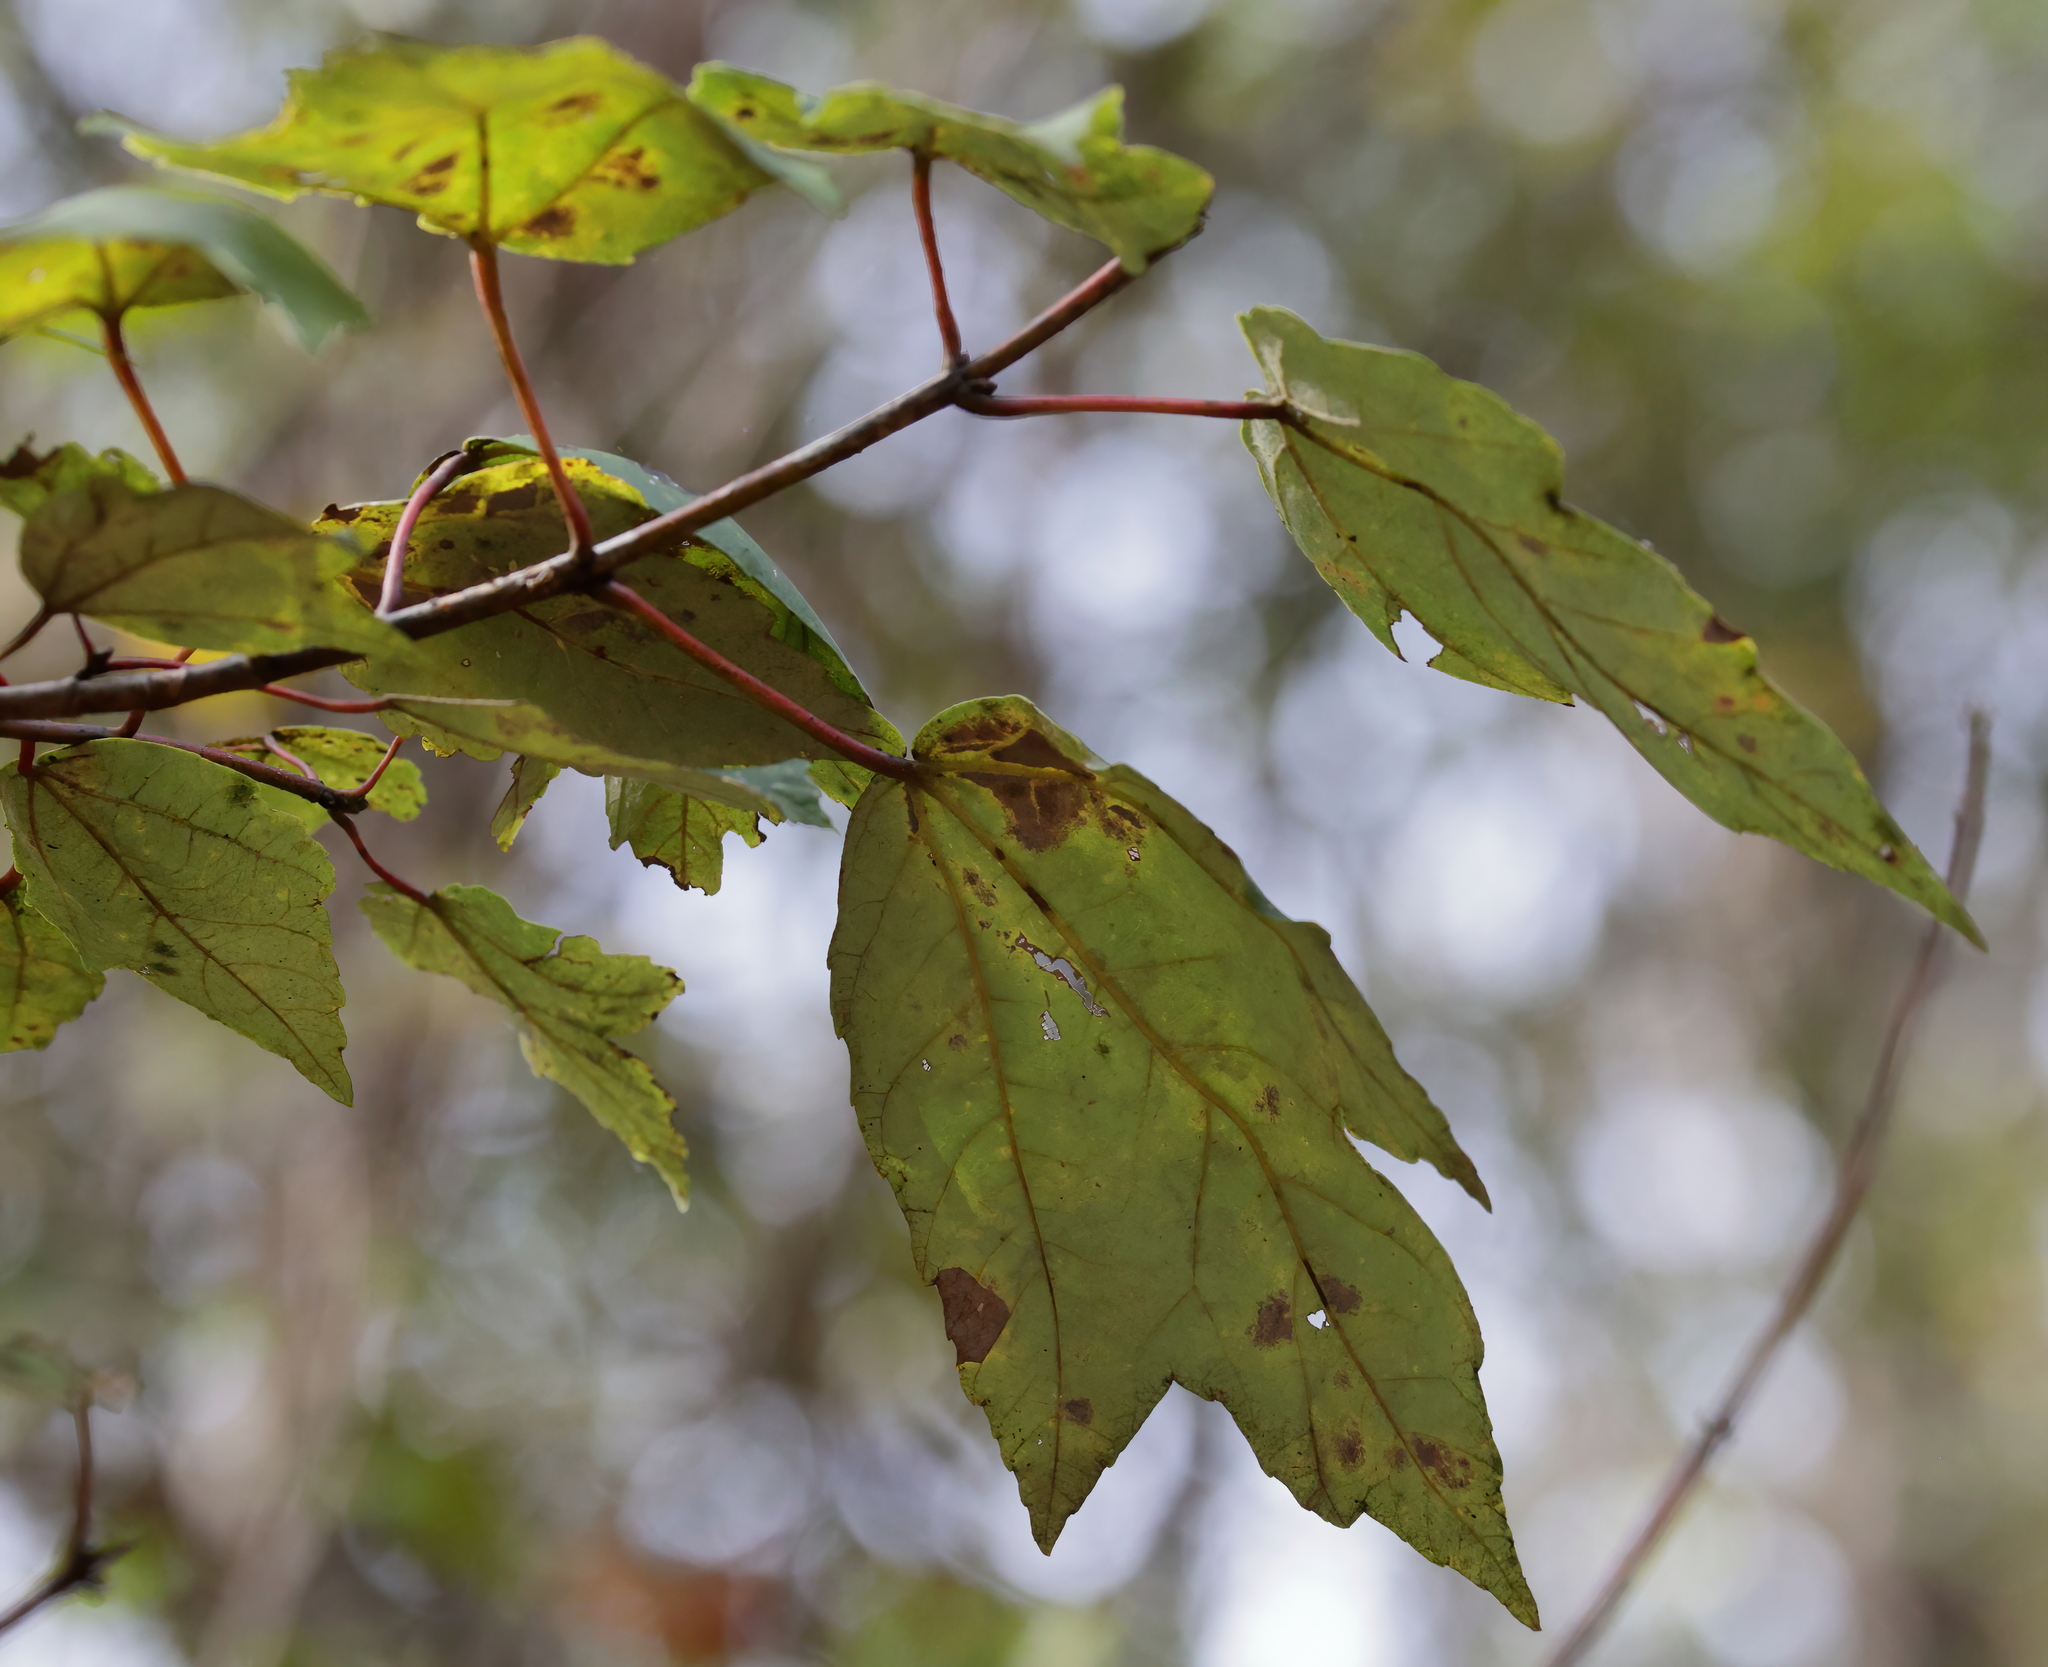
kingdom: Plantae
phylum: Tracheophyta
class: Magnoliopsida
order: Sapindales
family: Sapindaceae
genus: Acer
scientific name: Acer rubrum
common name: Red maple
